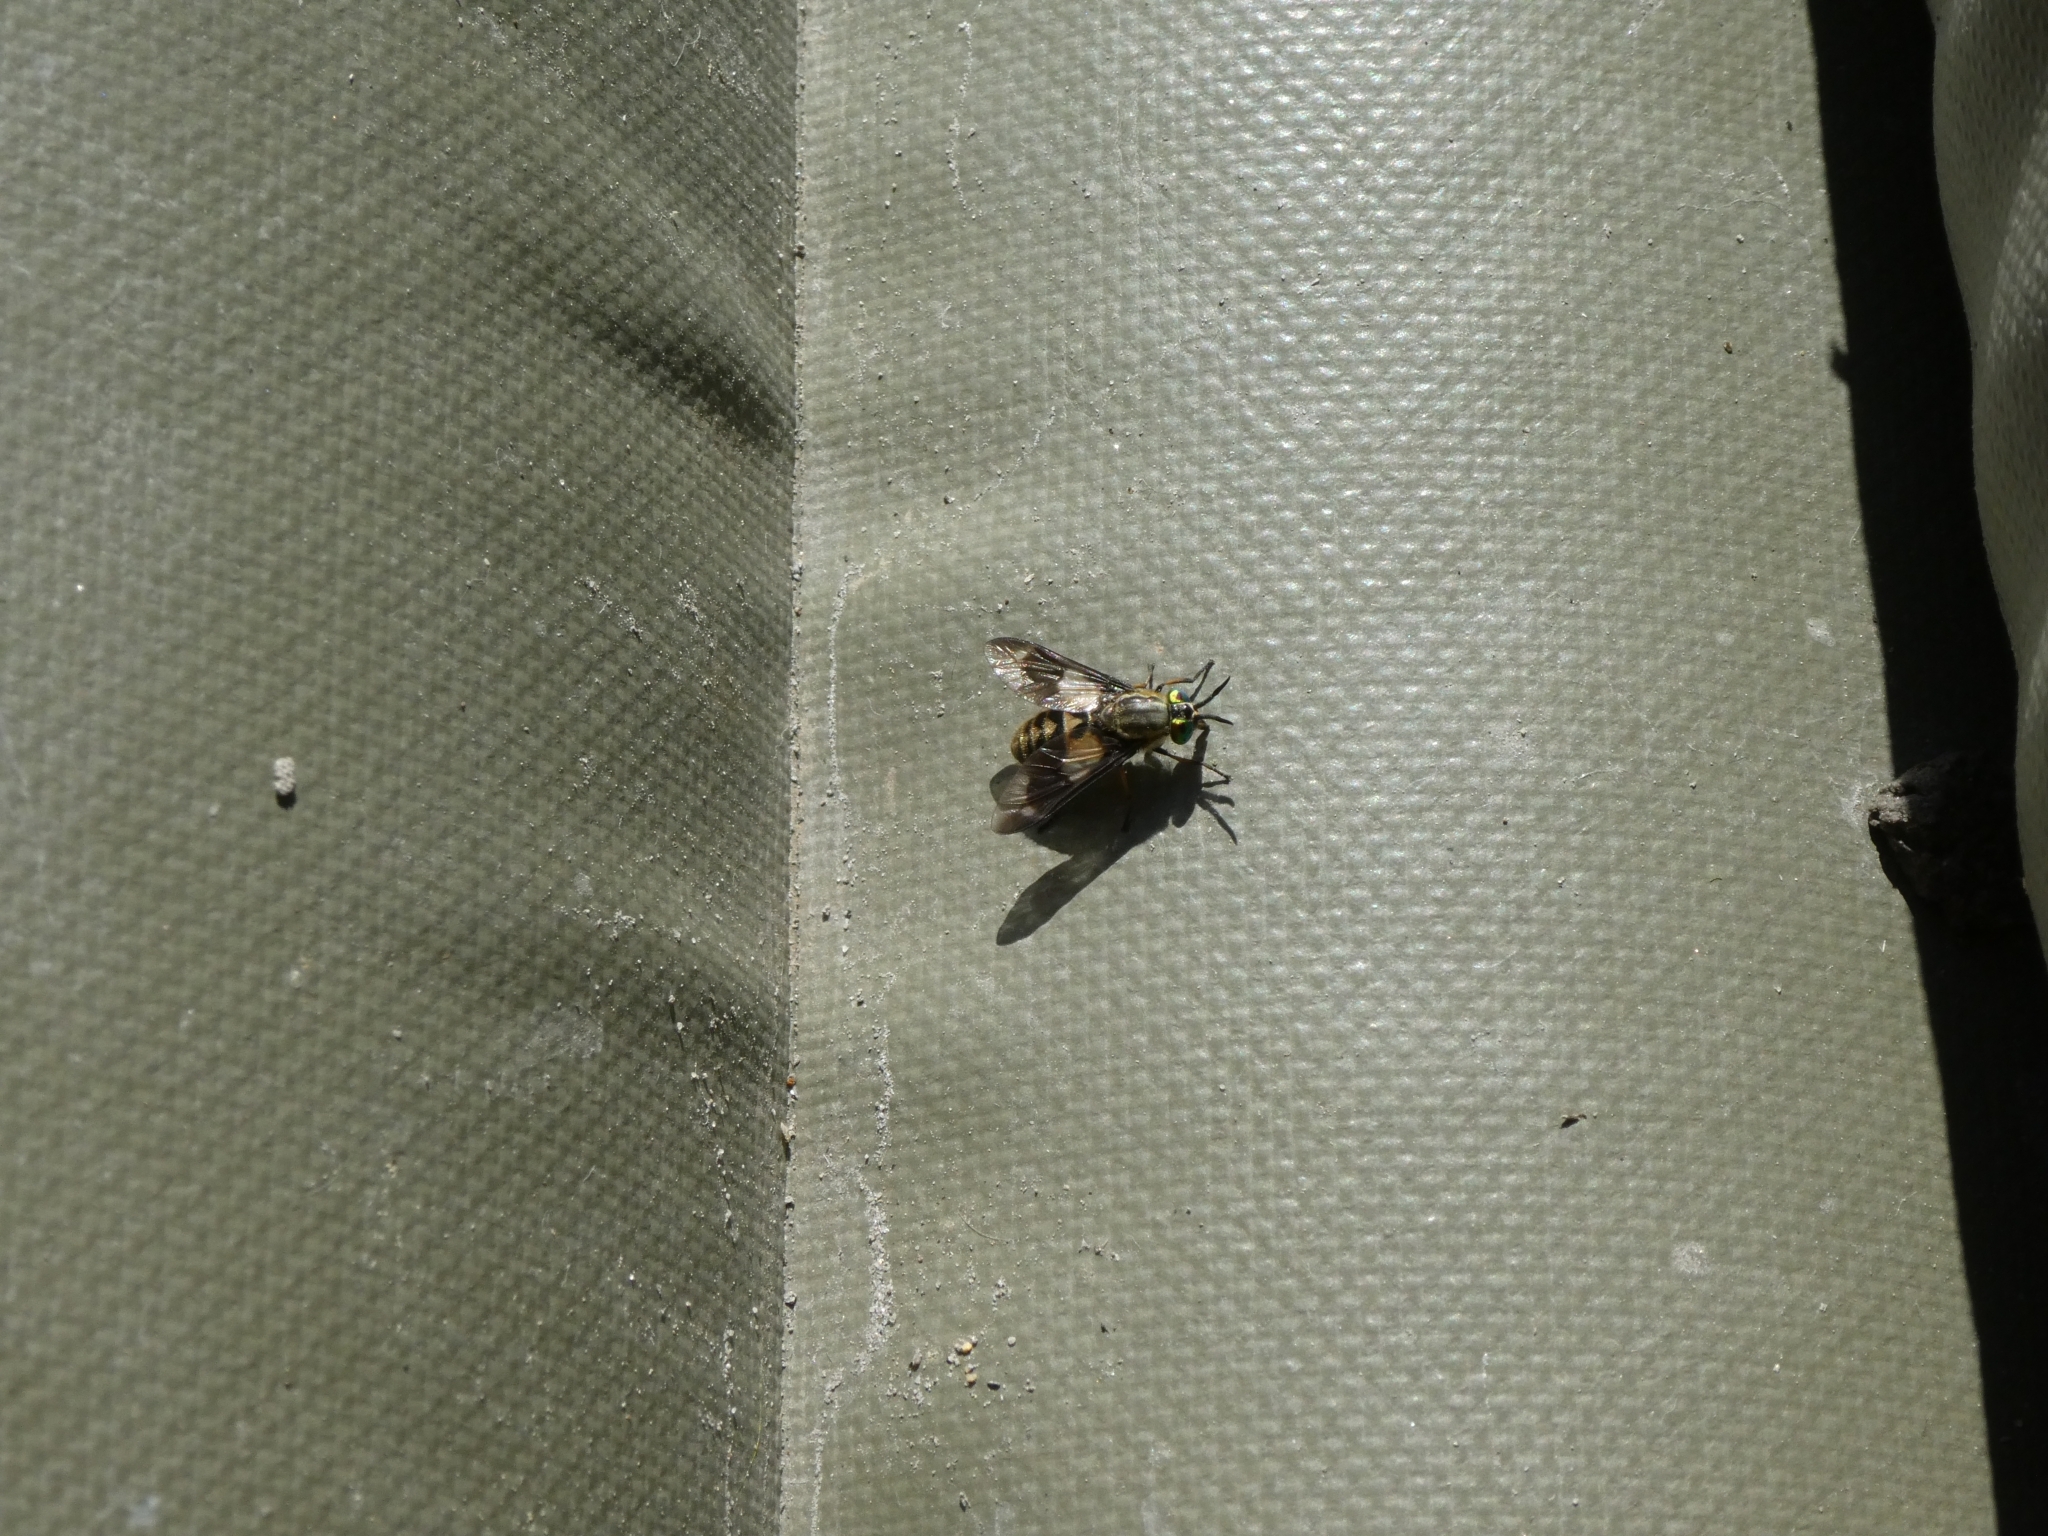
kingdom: Animalia
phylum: Arthropoda
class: Insecta
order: Diptera
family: Tabanidae
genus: Chrysops
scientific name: Chrysops relictus
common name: Twin-lobed deerfly
